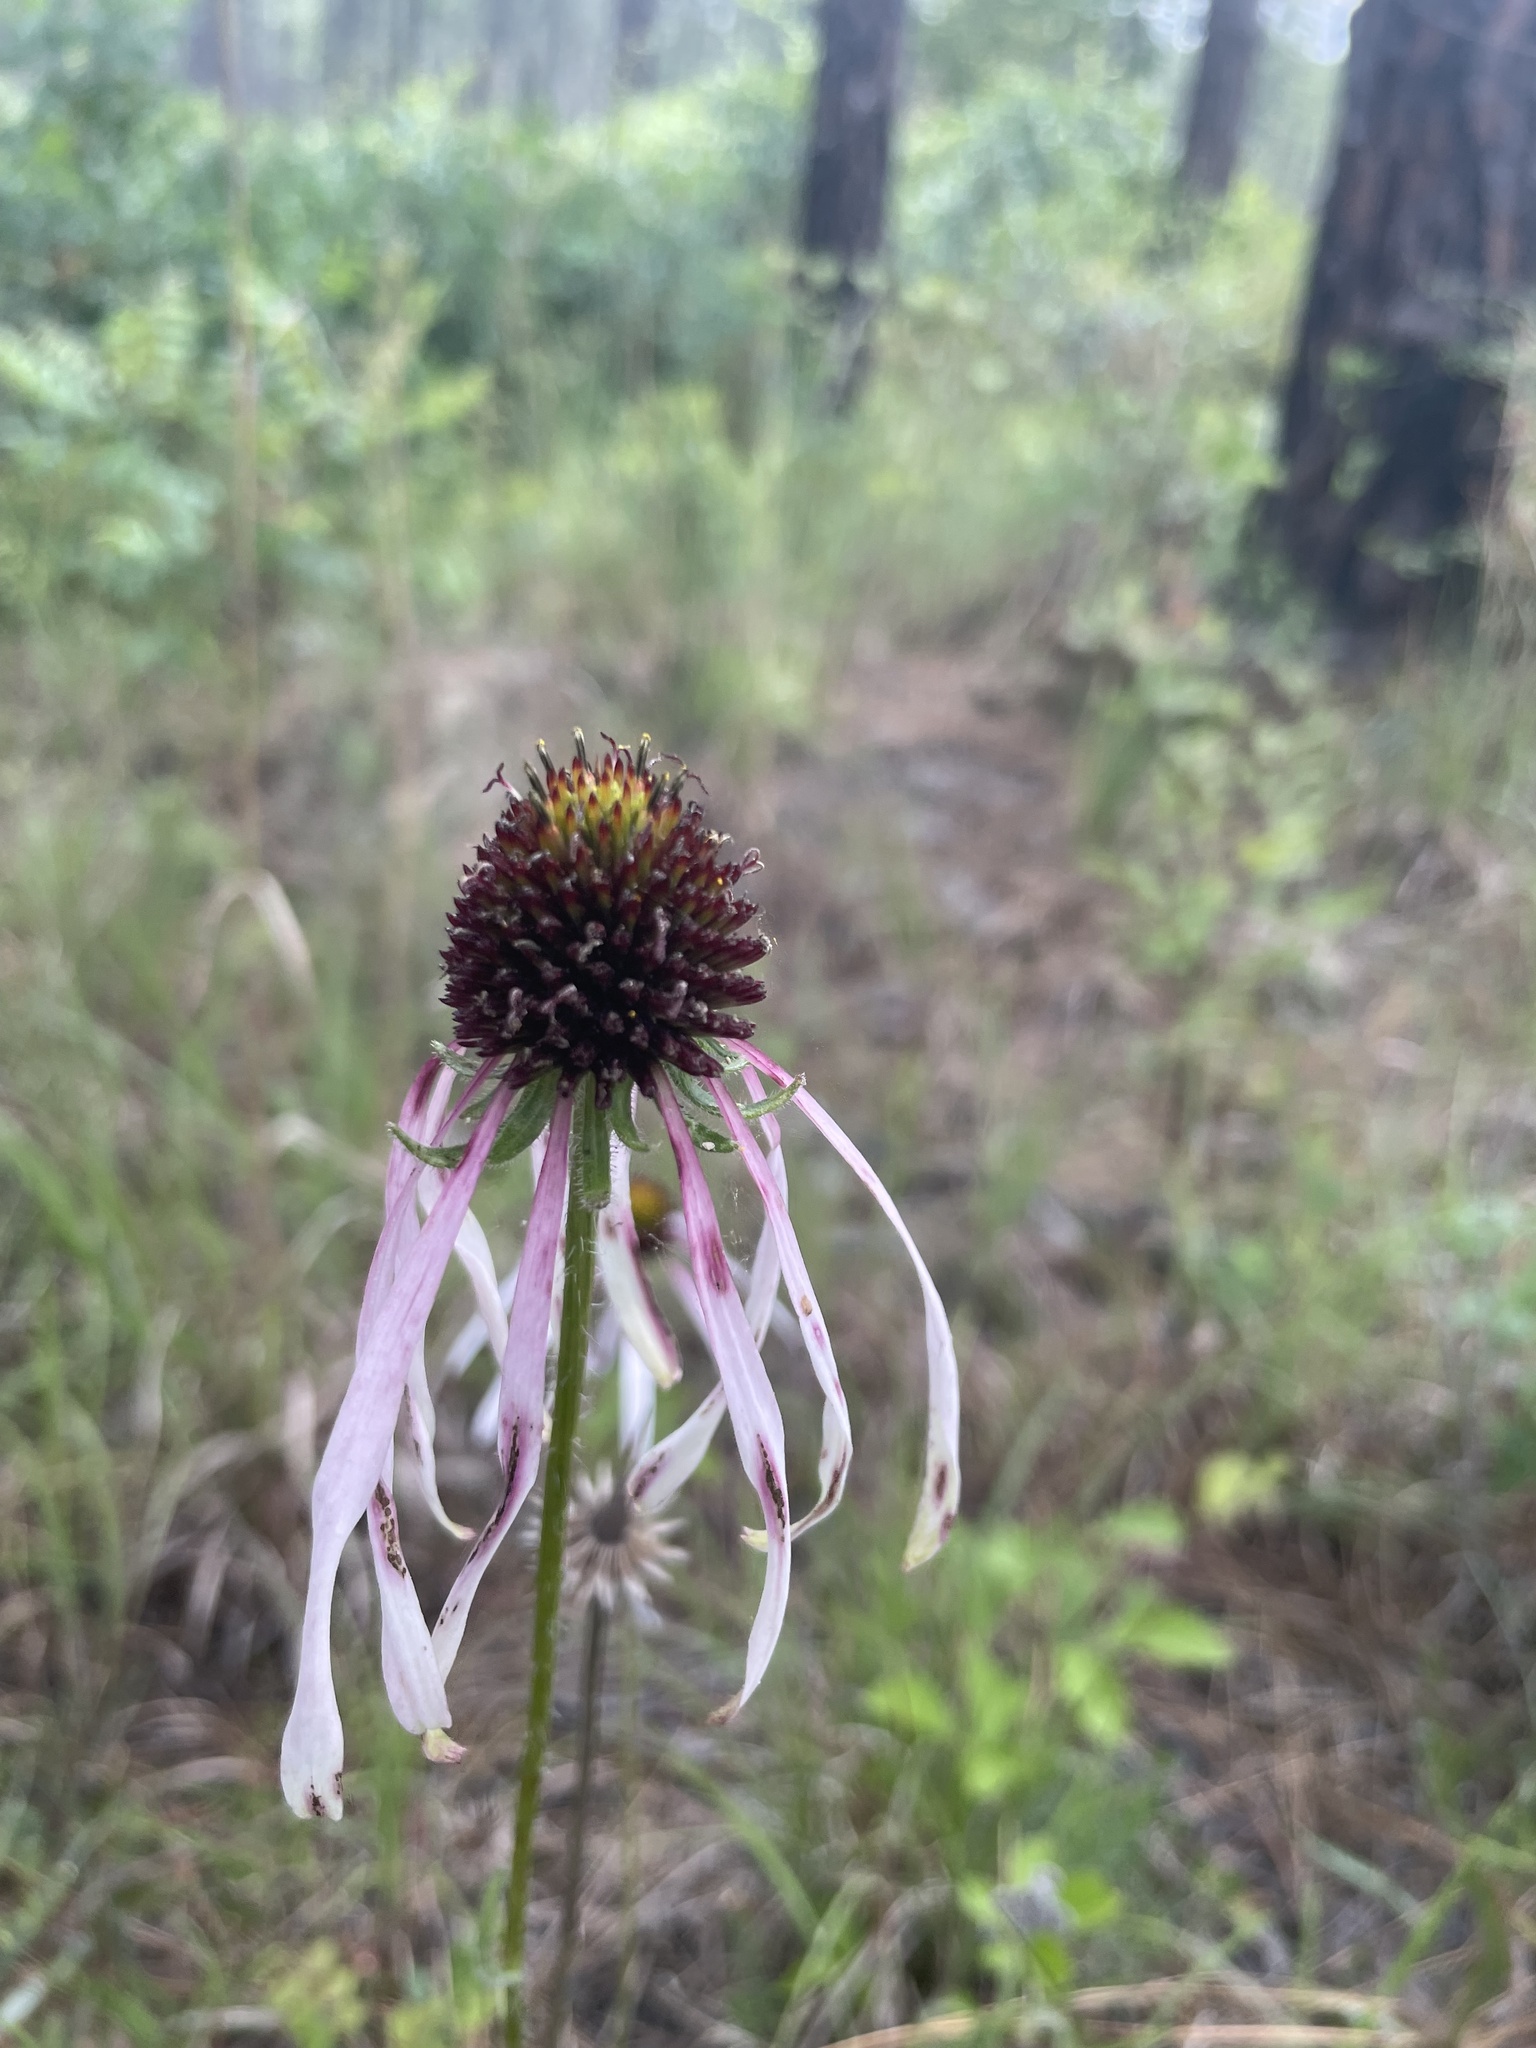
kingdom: Plantae
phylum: Tracheophyta
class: Magnoliopsida
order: Asterales
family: Asteraceae
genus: Echinacea
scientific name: Echinacea sanguinea
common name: Sanguine purple-coneflower
